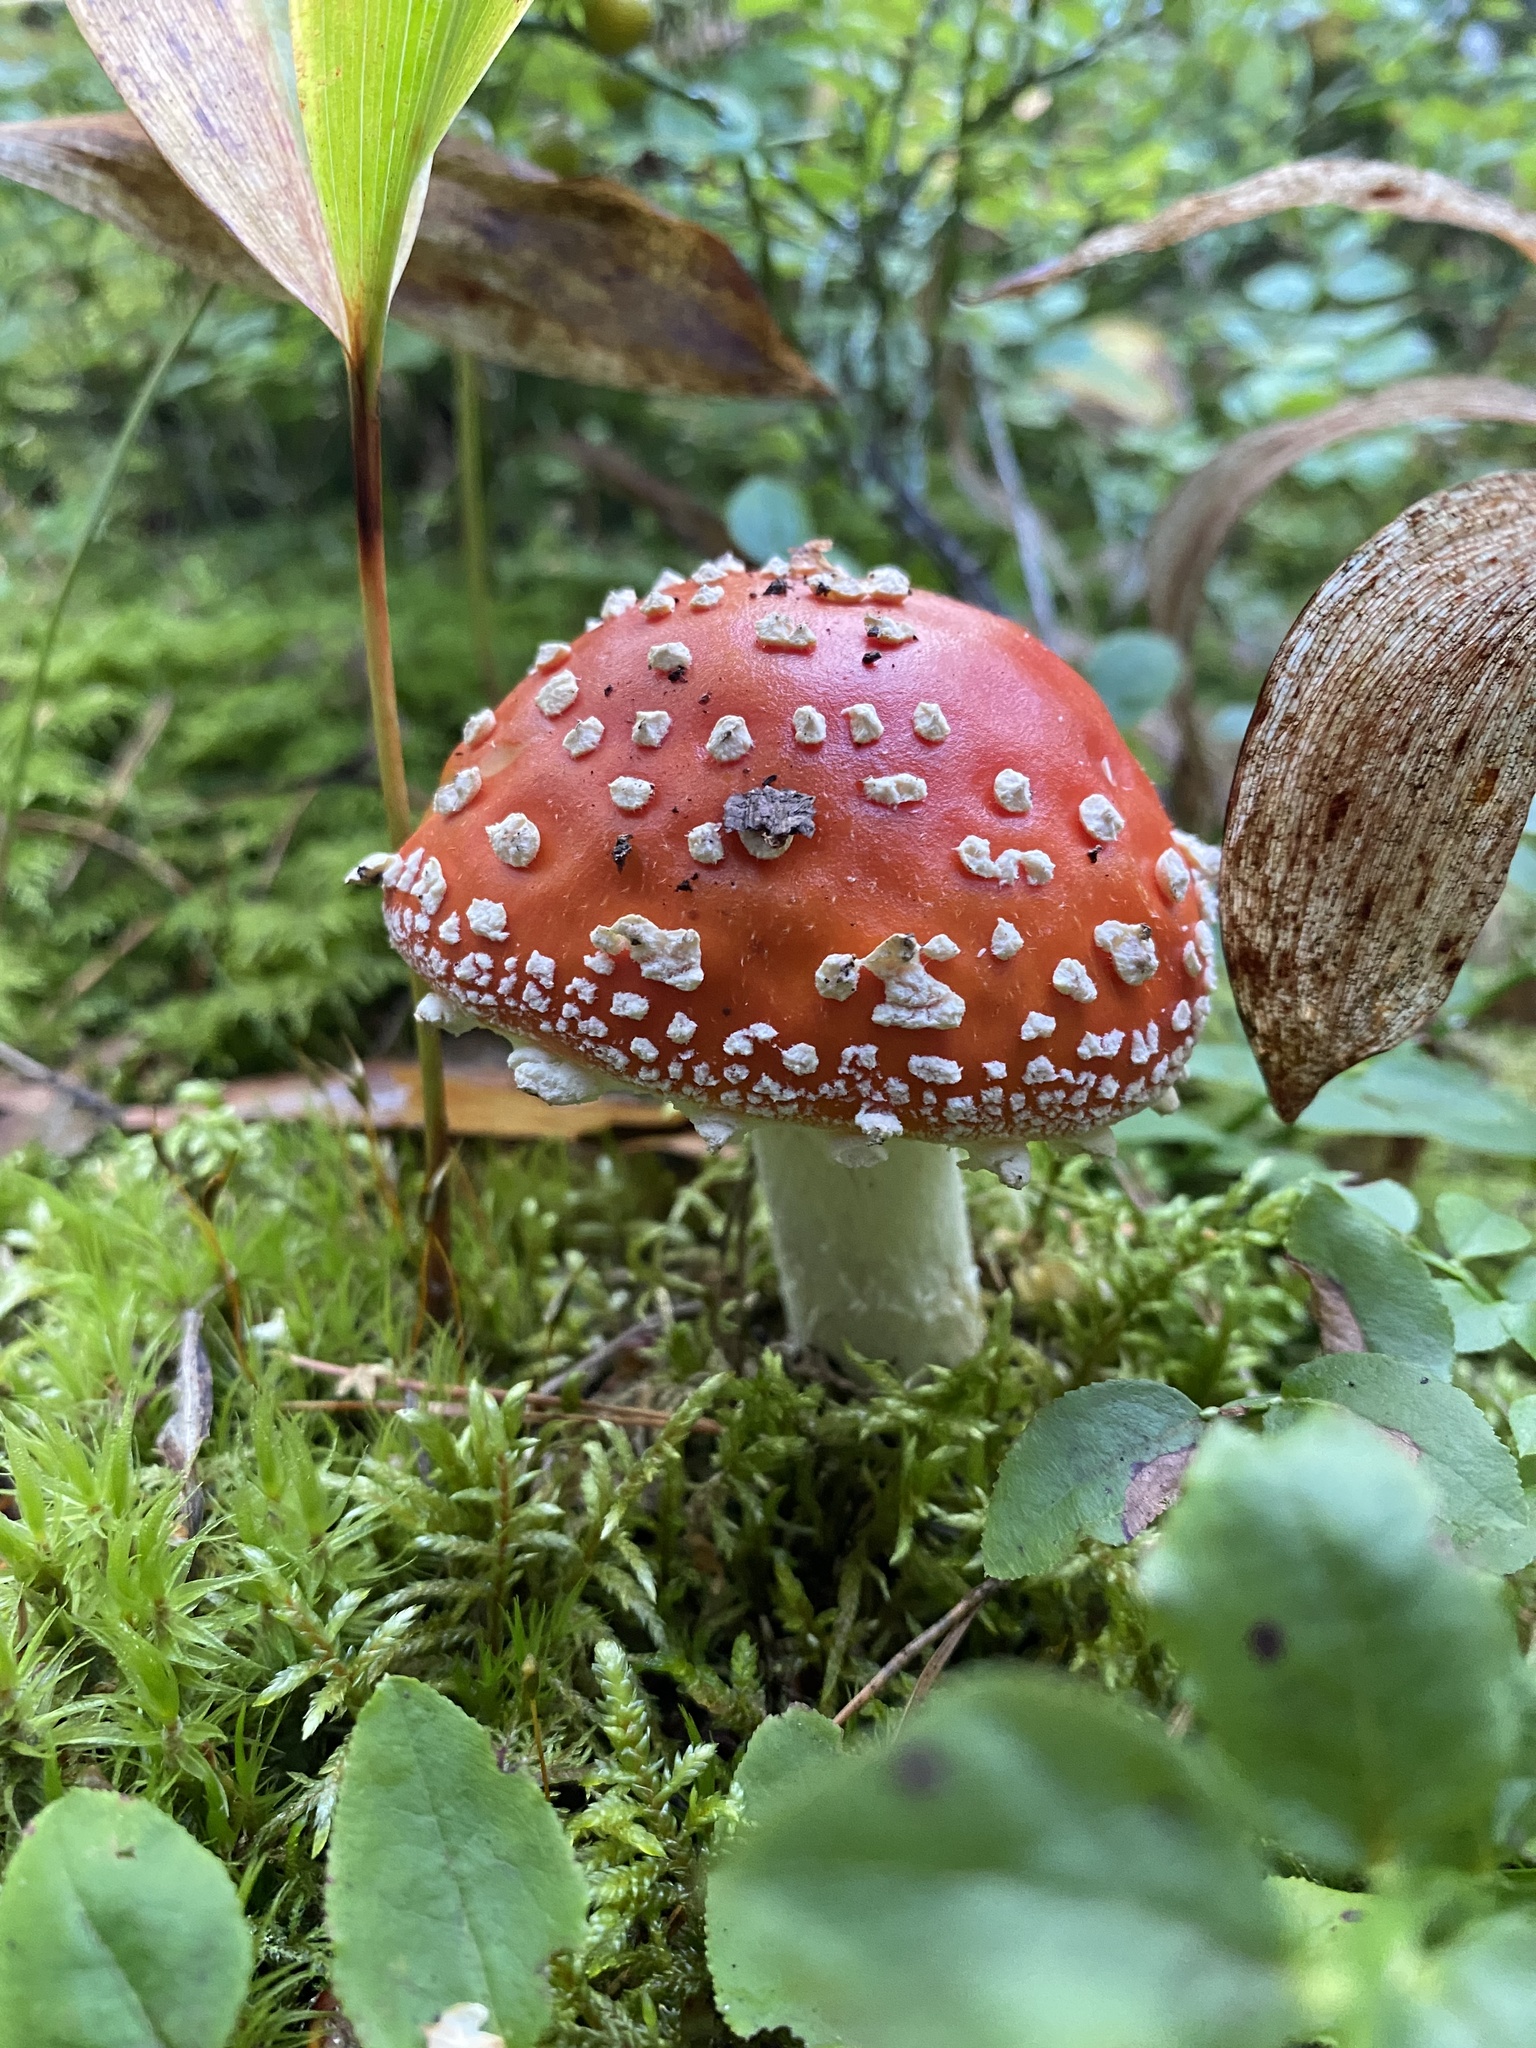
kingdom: Fungi
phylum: Basidiomycota
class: Agaricomycetes
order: Agaricales
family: Amanitaceae
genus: Amanita
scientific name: Amanita muscaria
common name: Fly agaric
